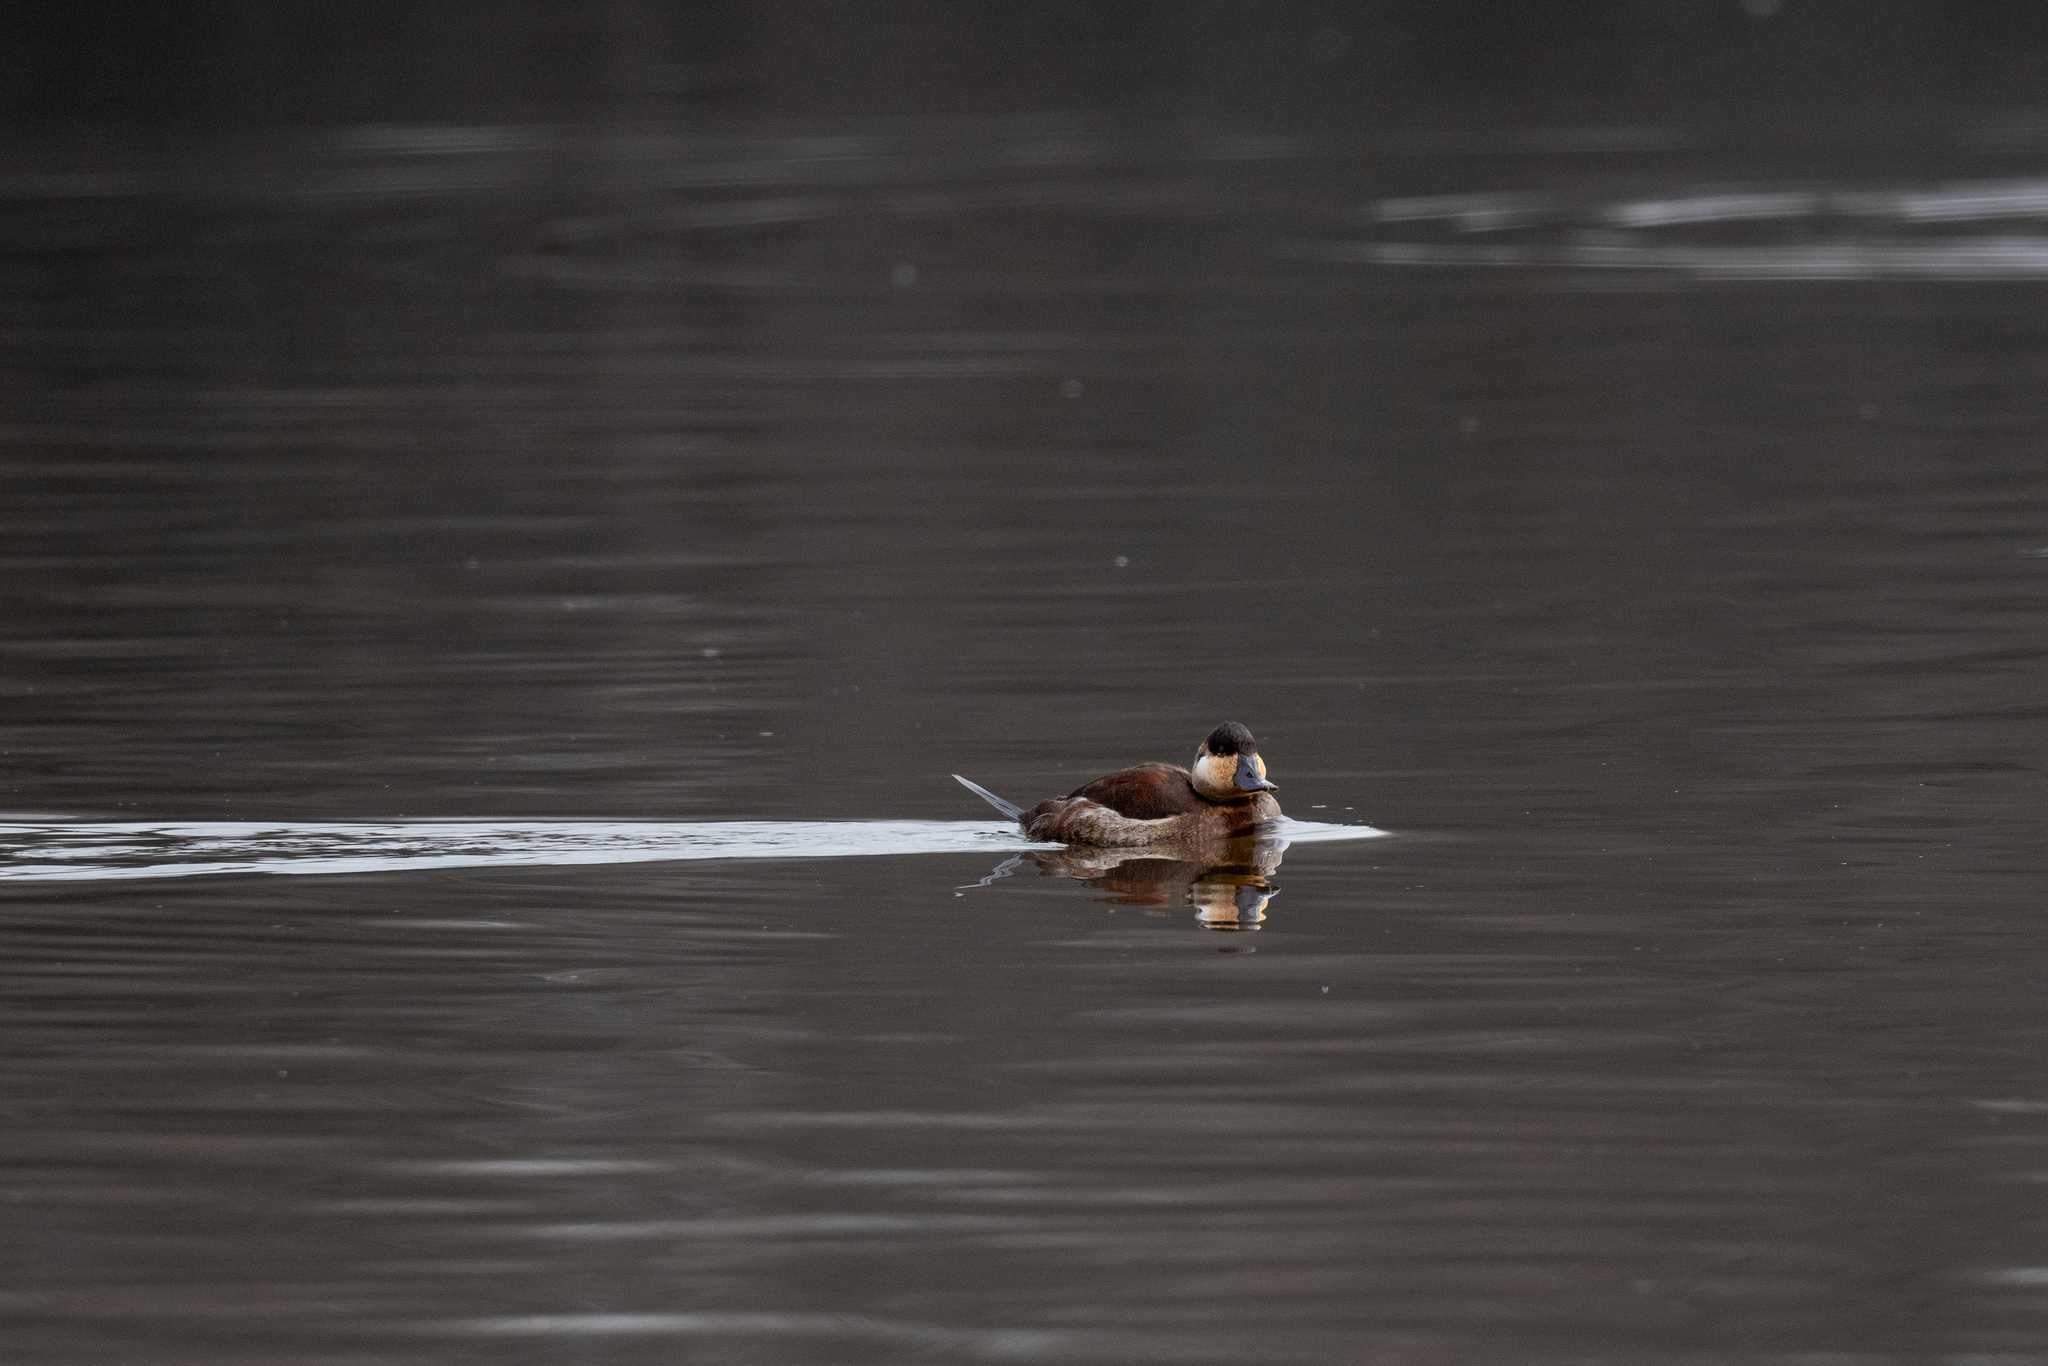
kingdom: Animalia
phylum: Chordata
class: Aves
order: Anseriformes
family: Anatidae
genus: Oxyura
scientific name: Oxyura jamaicensis
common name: Ruddy duck
